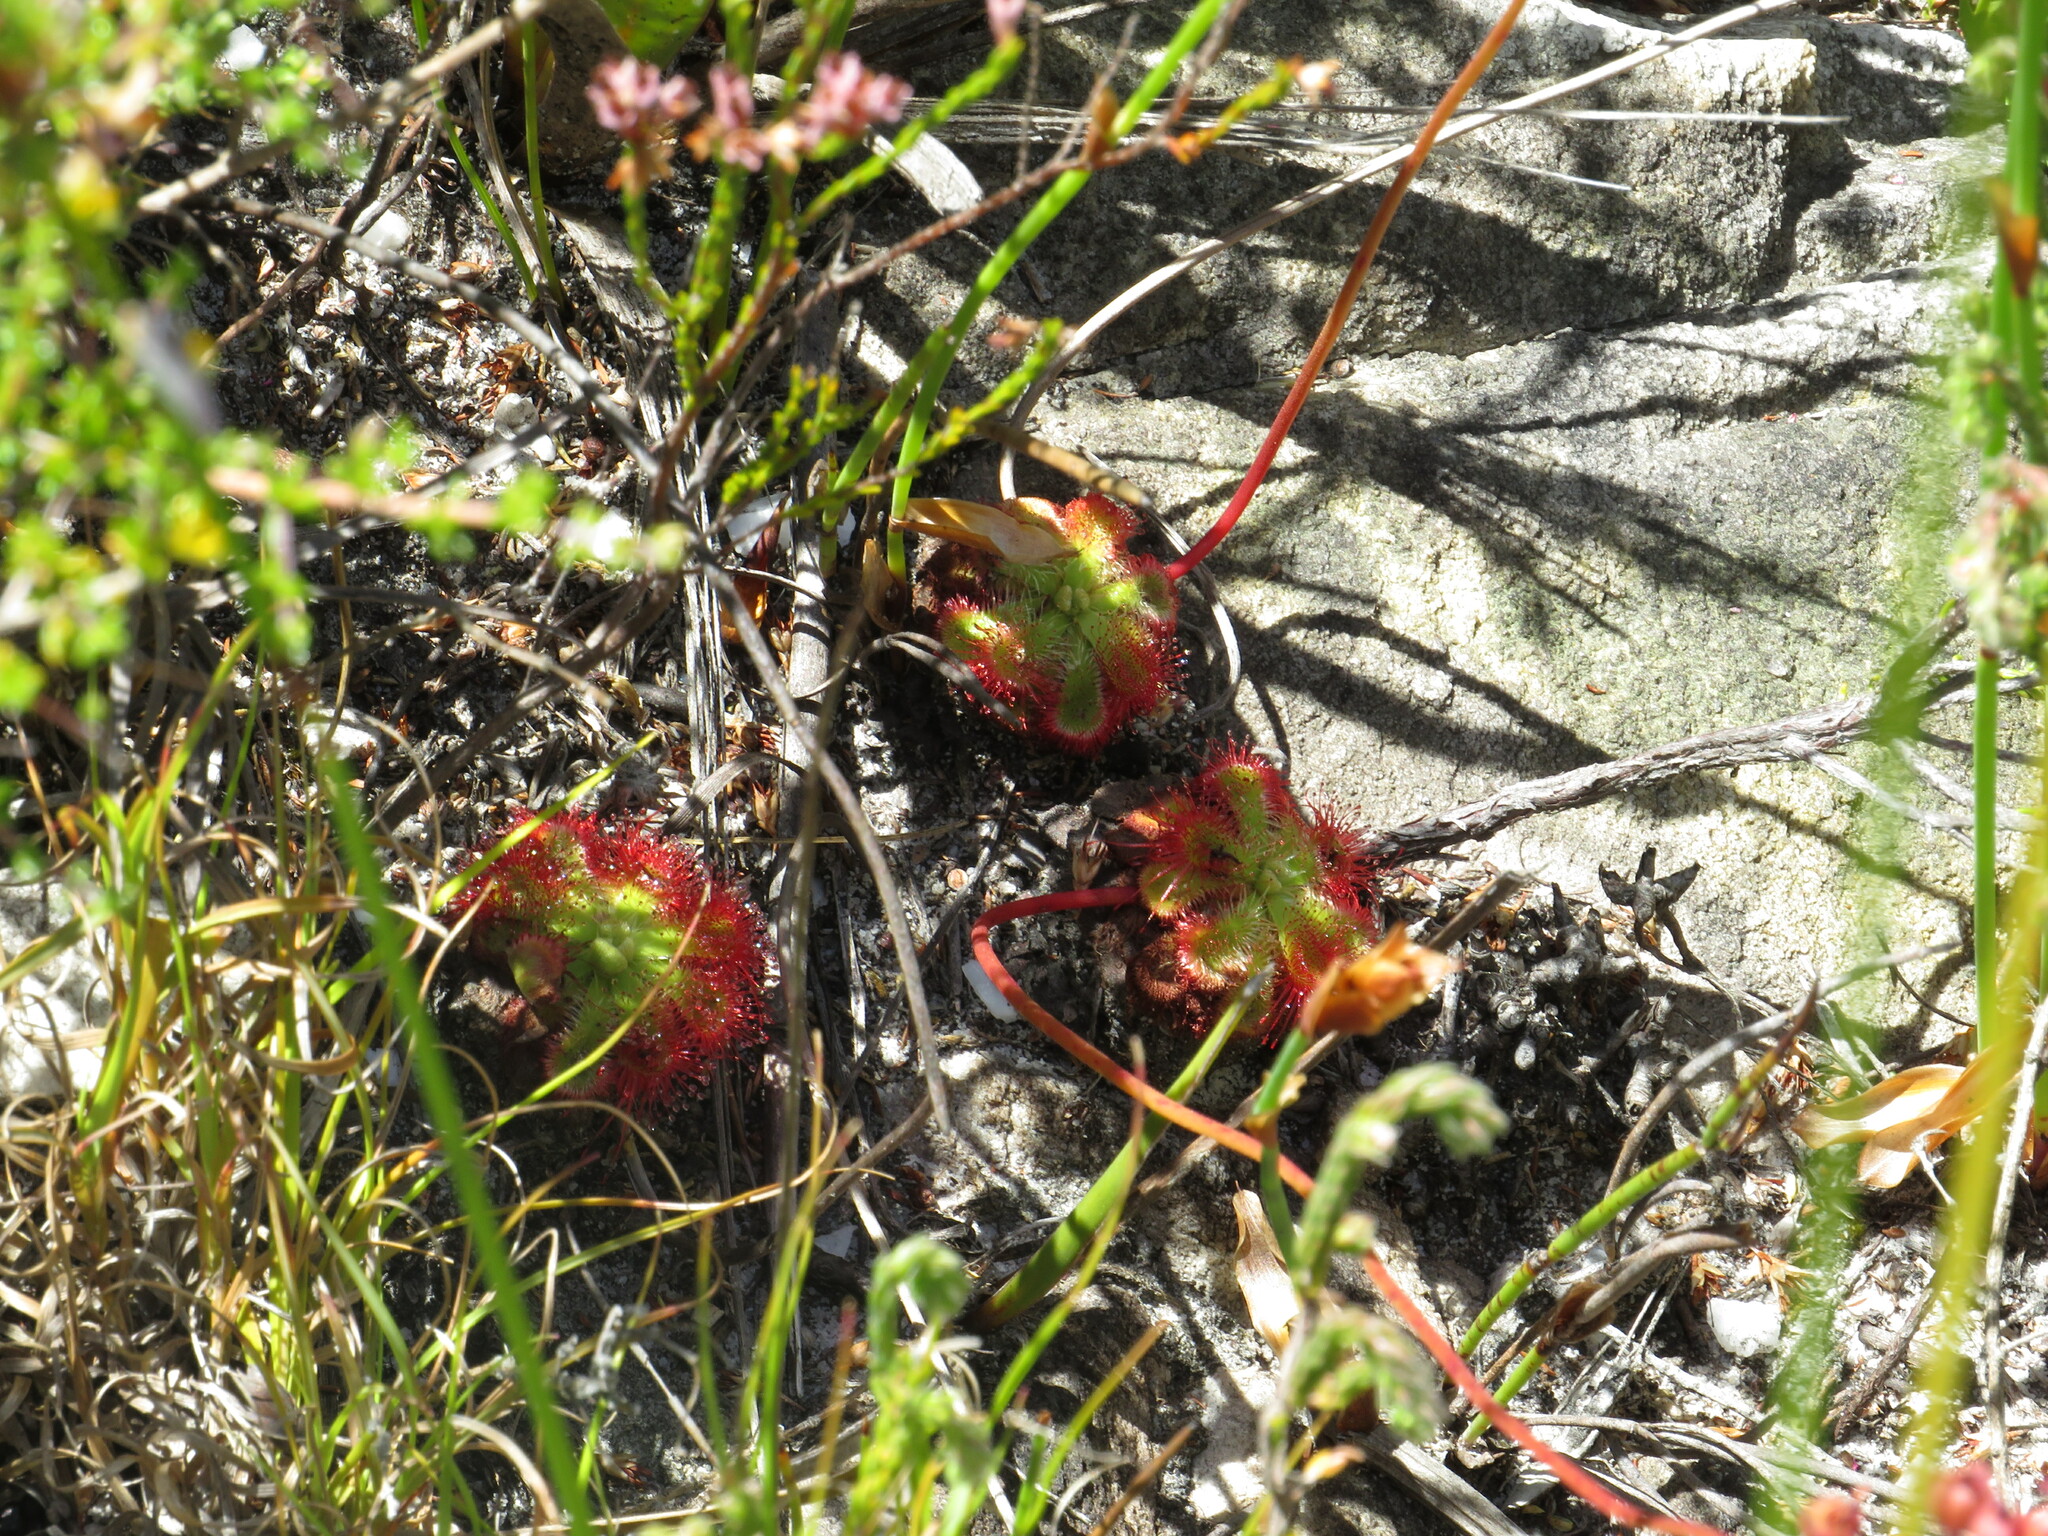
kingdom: Plantae
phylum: Tracheophyta
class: Magnoliopsida
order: Caryophyllales
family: Droseraceae
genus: Drosera
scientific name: Drosera xerophila
